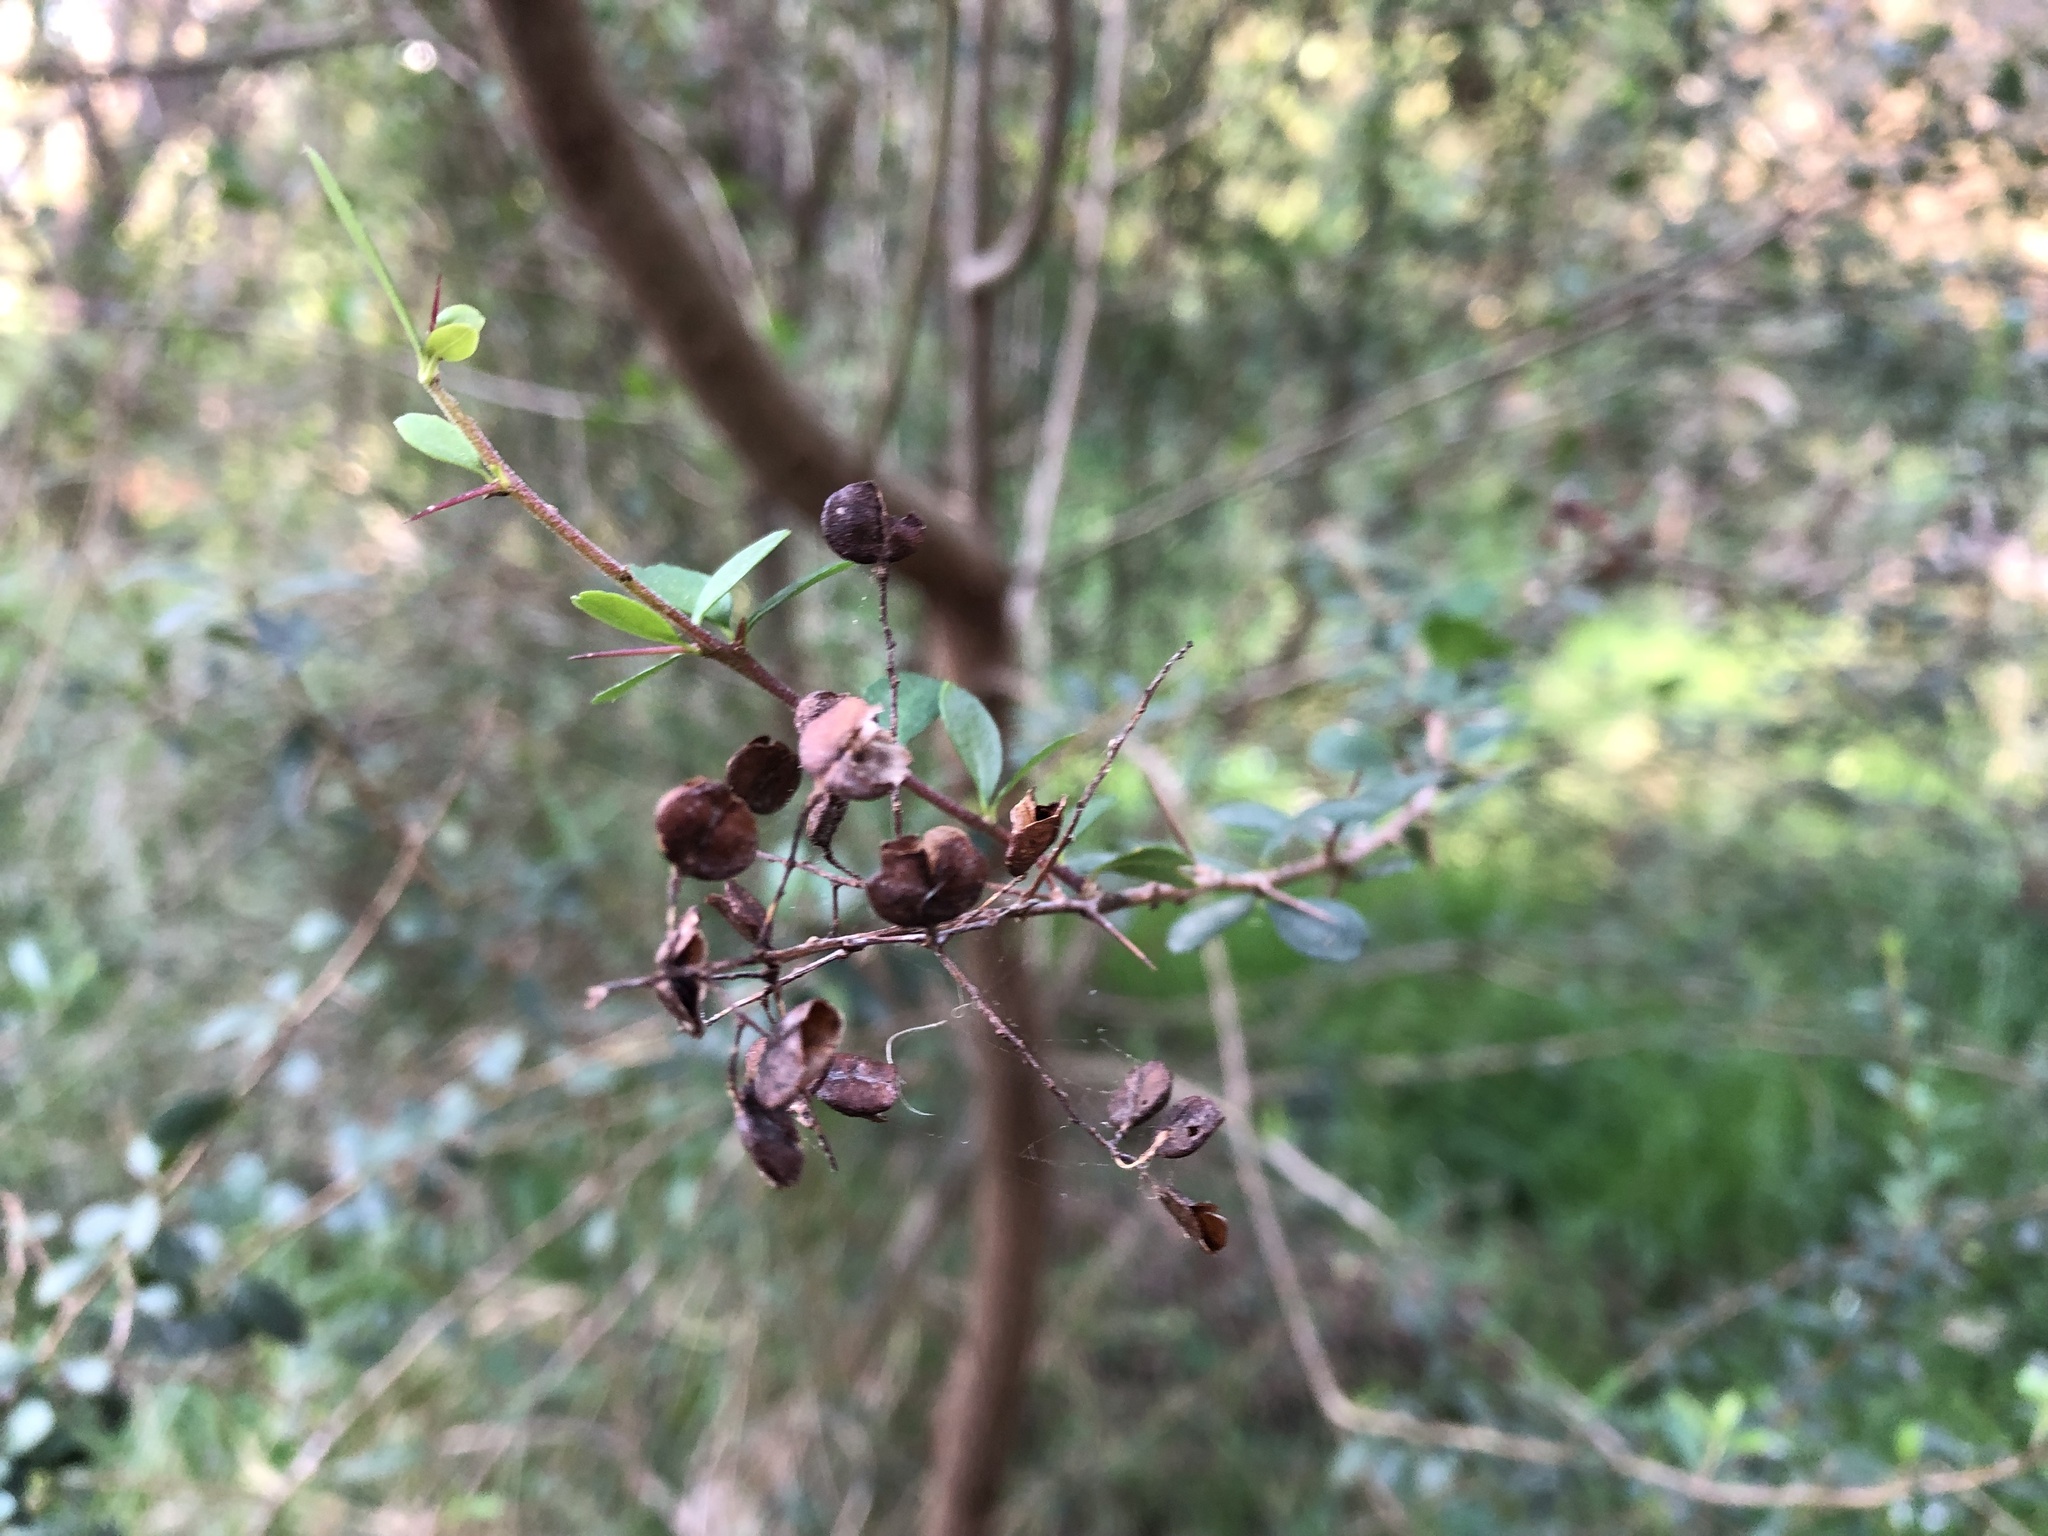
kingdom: Plantae
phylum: Tracheophyta
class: Magnoliopsida
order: Apiales
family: Pittosporaceae
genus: Bursaria
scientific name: Bursaria spinosa
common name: Australian blackthorn
